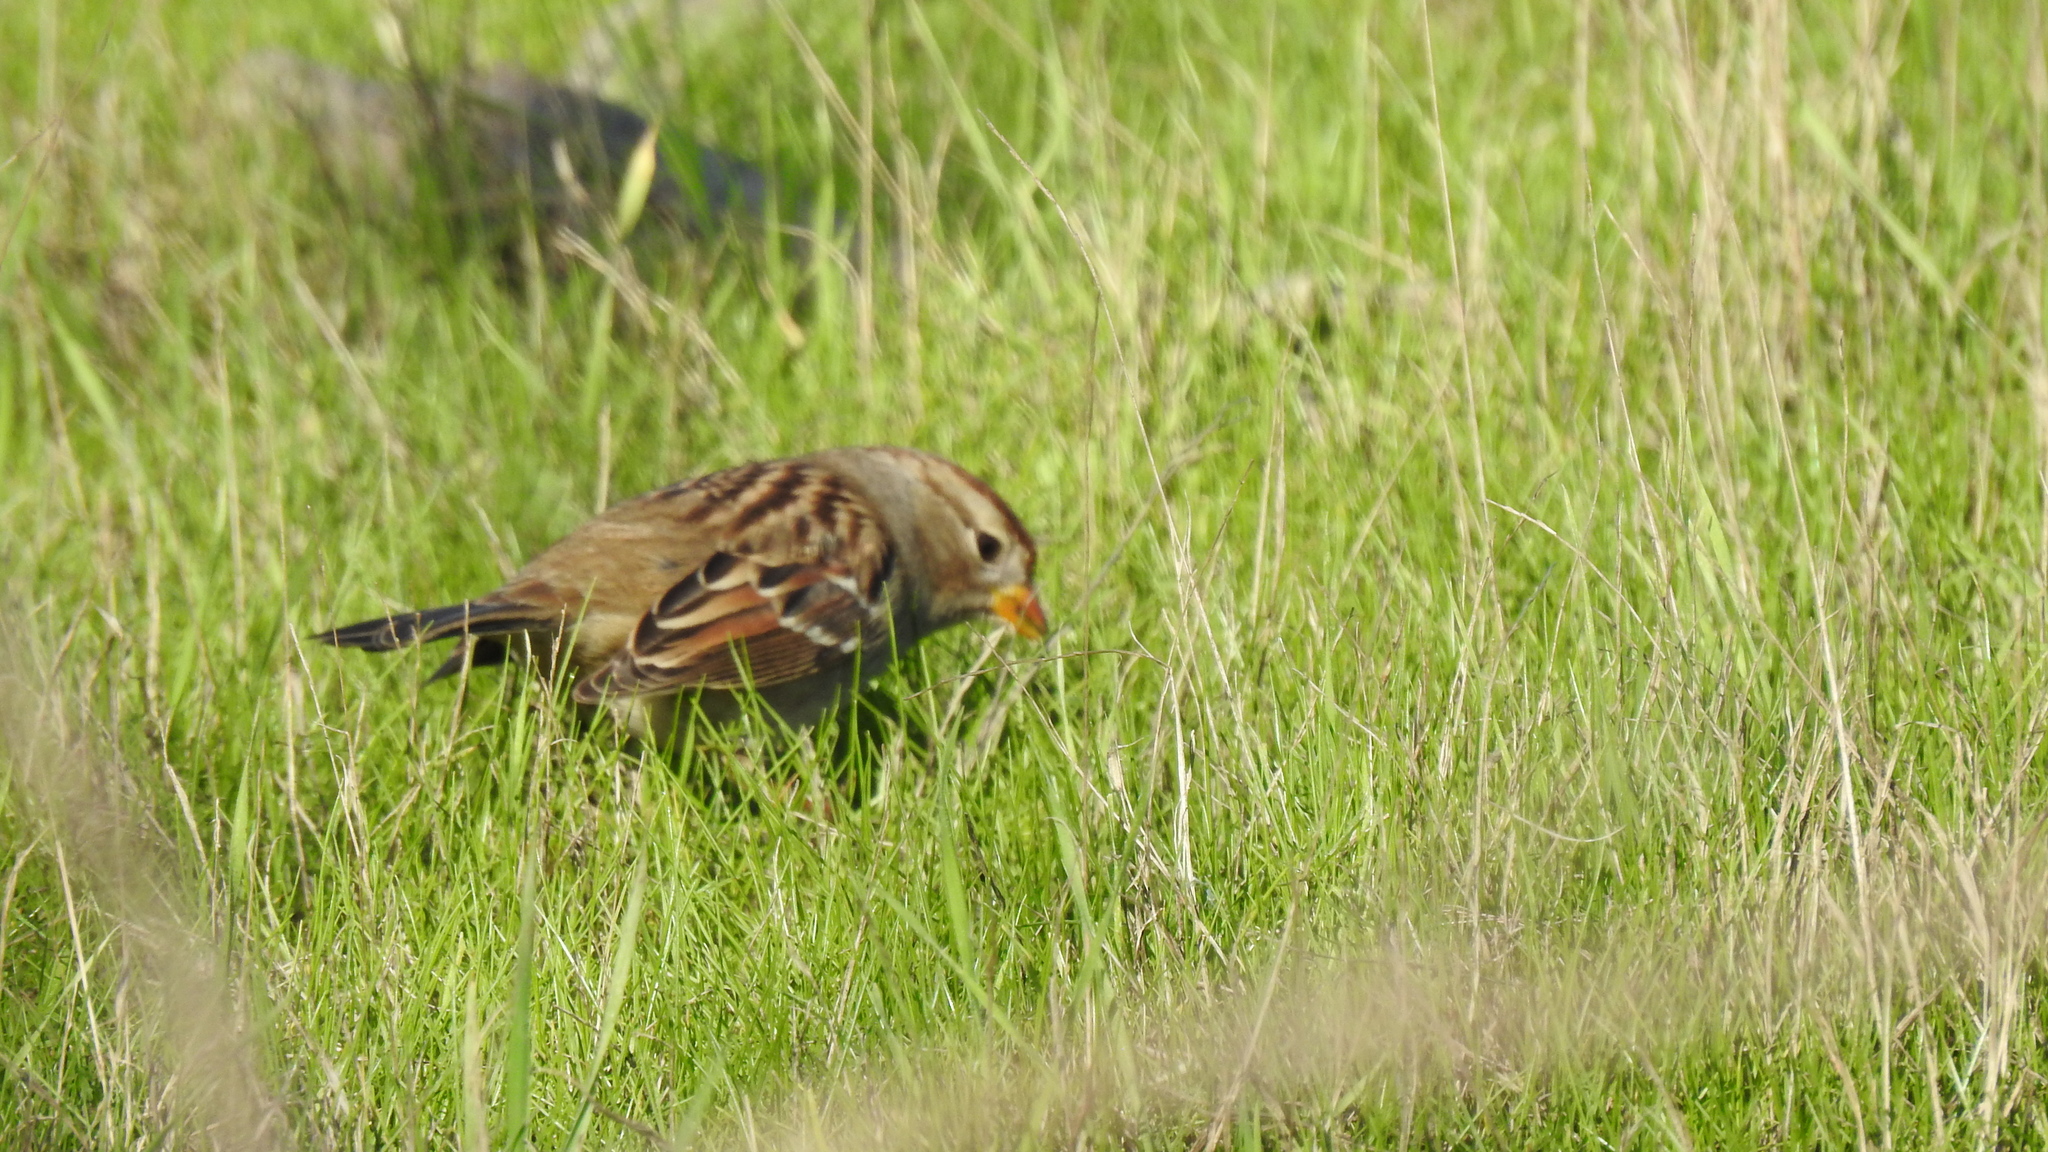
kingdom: Animalia
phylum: Chordata
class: Aves
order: Passeriformes
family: Passerellidae
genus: Zonotrichia
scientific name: Zonotrichia leucophrys
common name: White-crowned sparrow
